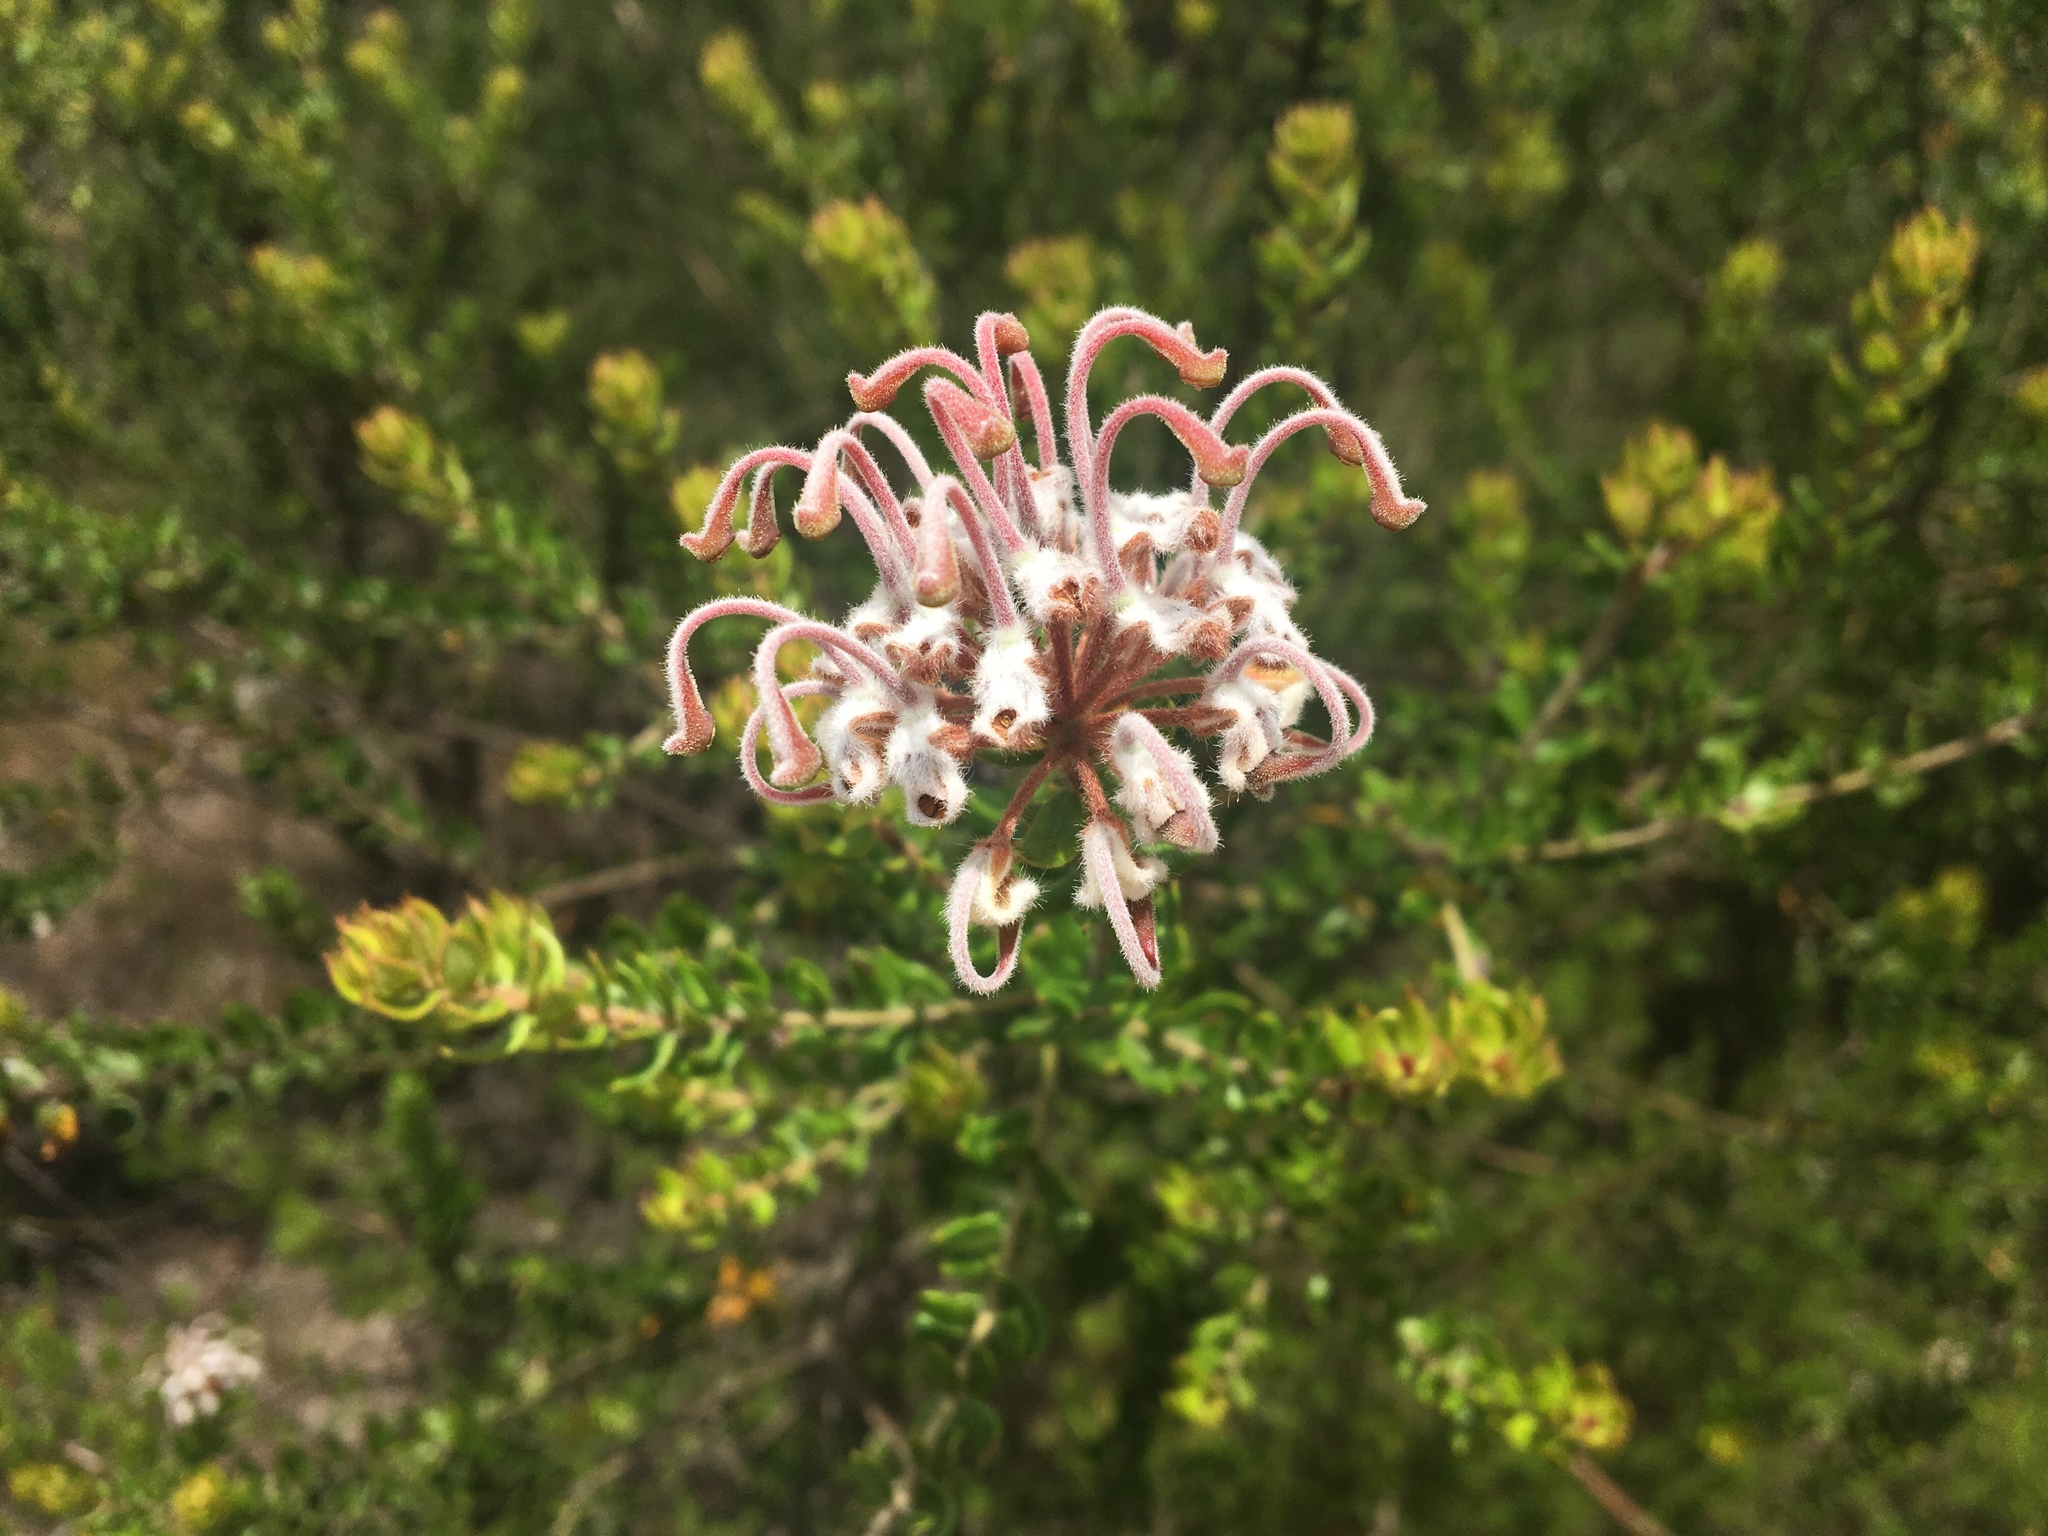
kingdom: Plantae
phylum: Tracheophyta
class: Magnoliopsida
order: Proteales
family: Proteaceae
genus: Grevillea
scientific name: Grevillea buxifolia
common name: Grey spiderflower
